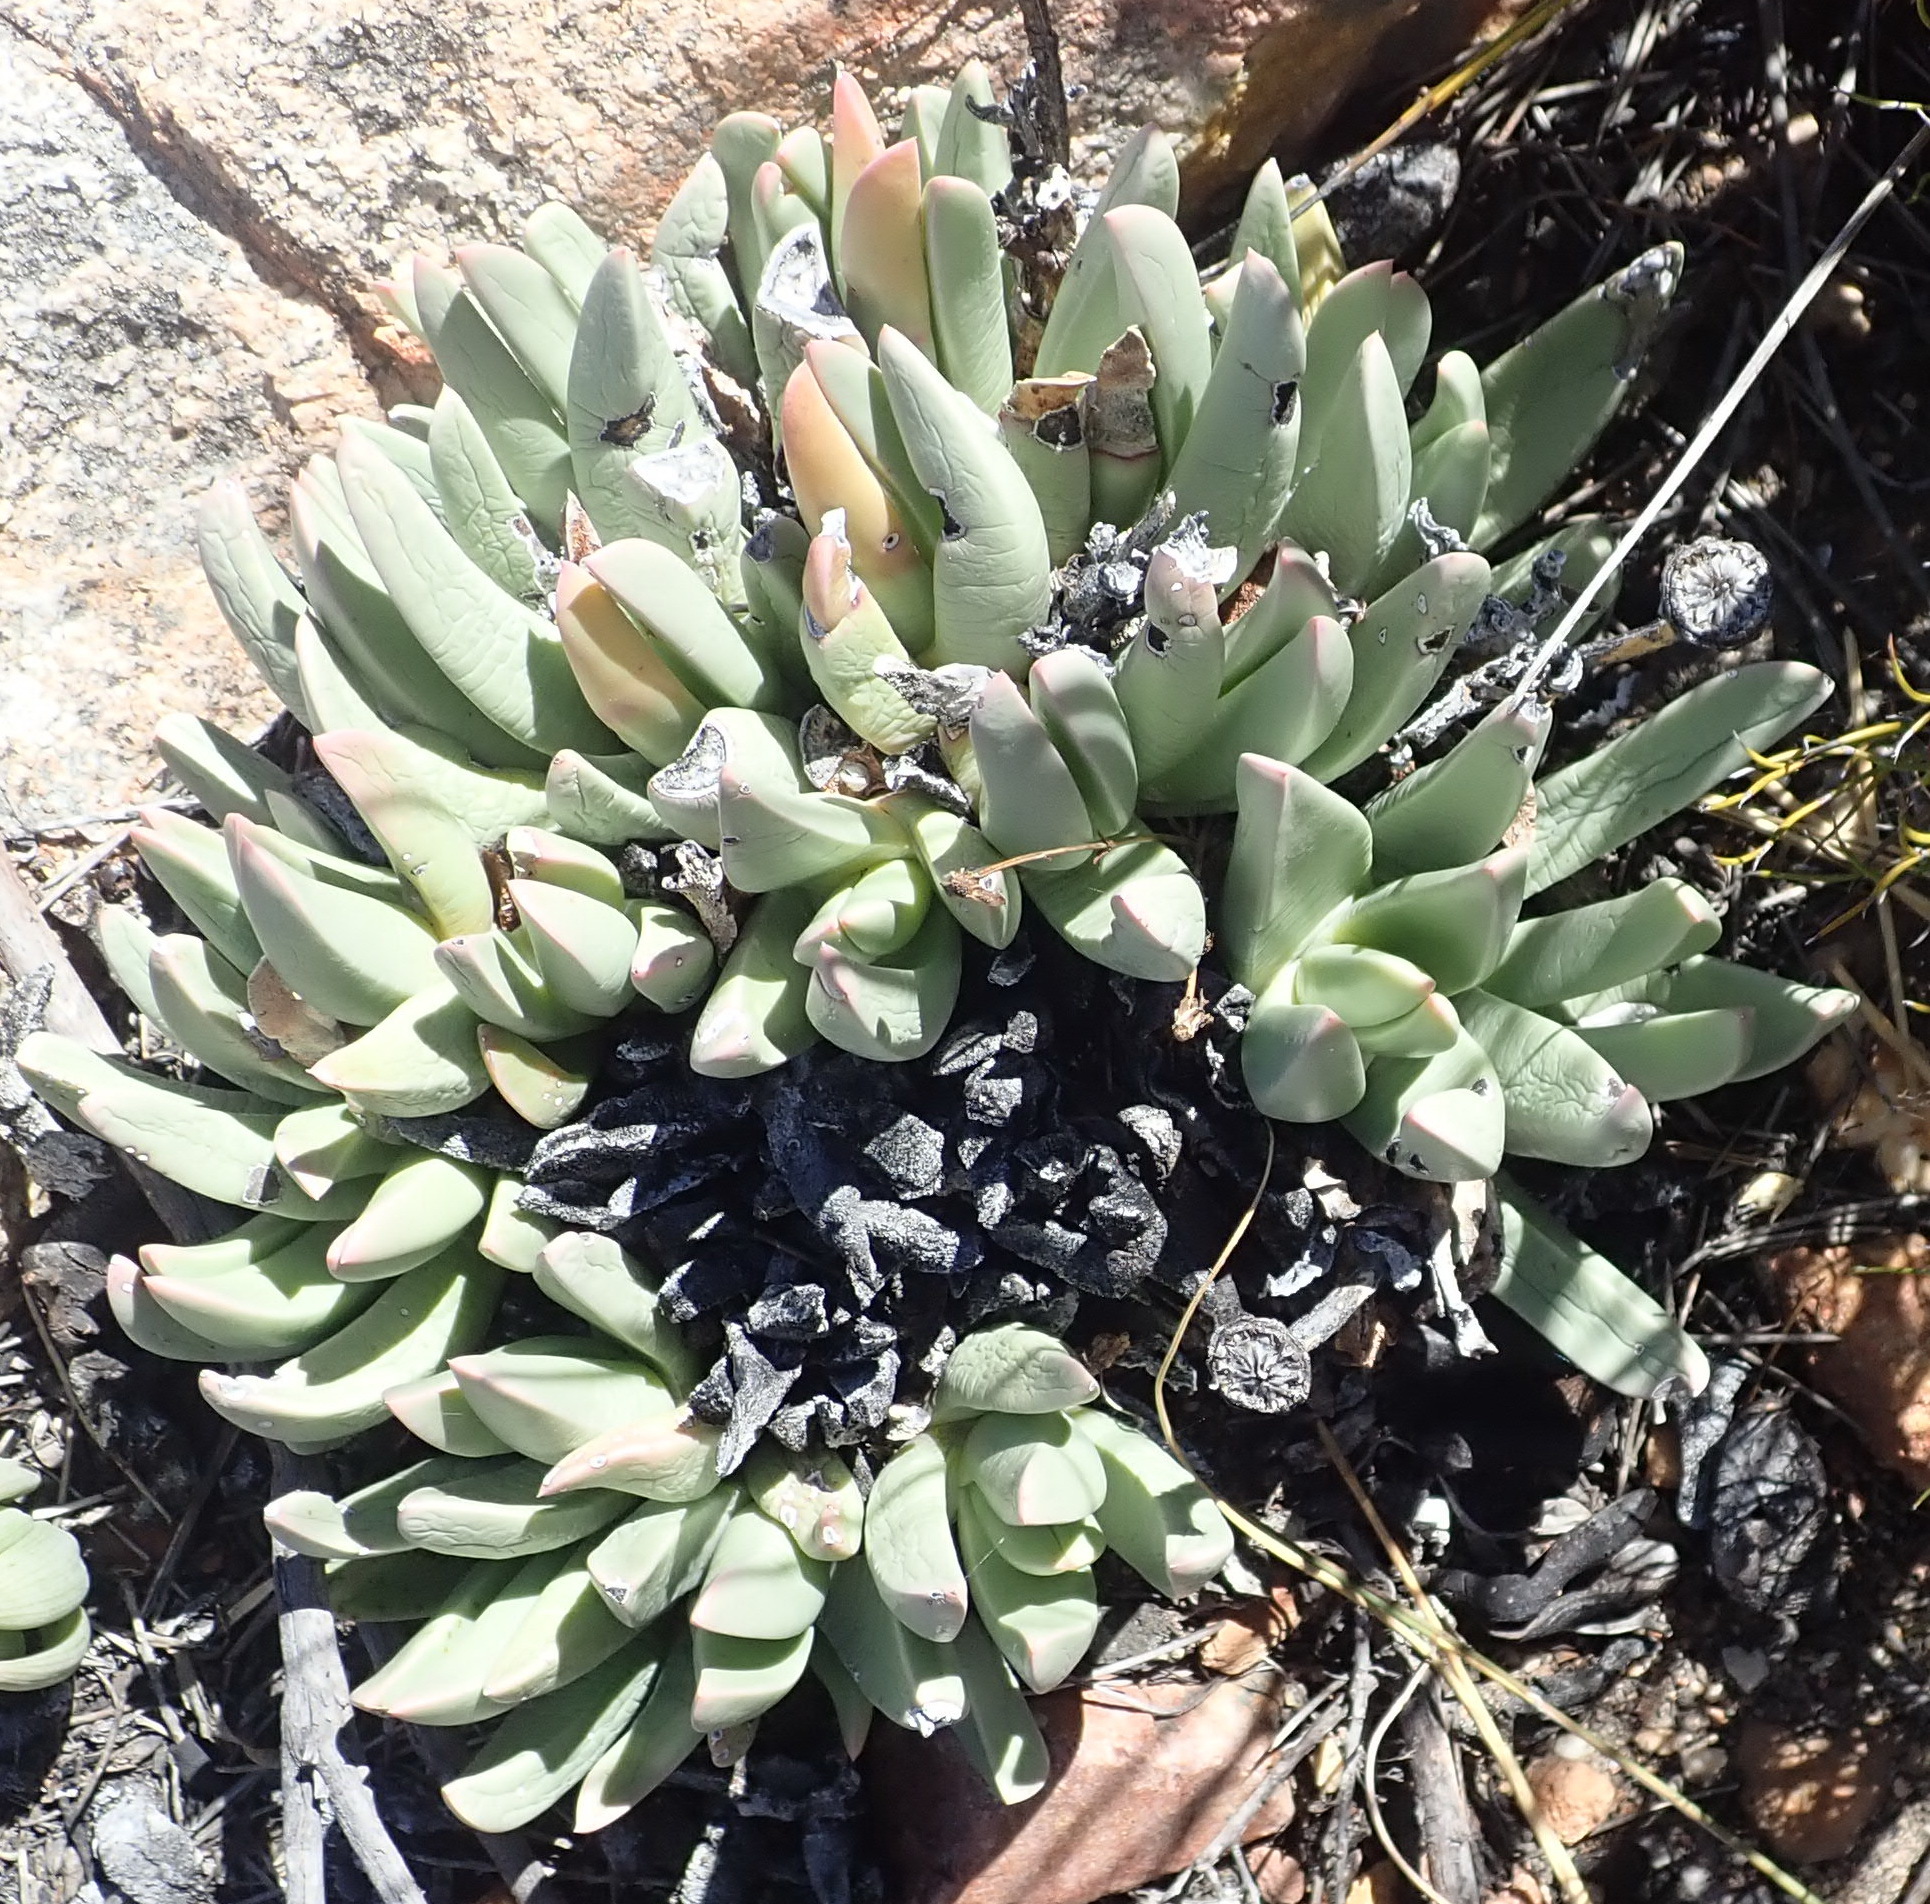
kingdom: Plantae
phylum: Tracheophyta
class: Magnoliopsida
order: Caryophyllales
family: Aizoaceae
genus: Machairophyllum
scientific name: Machairophyllum albidum
